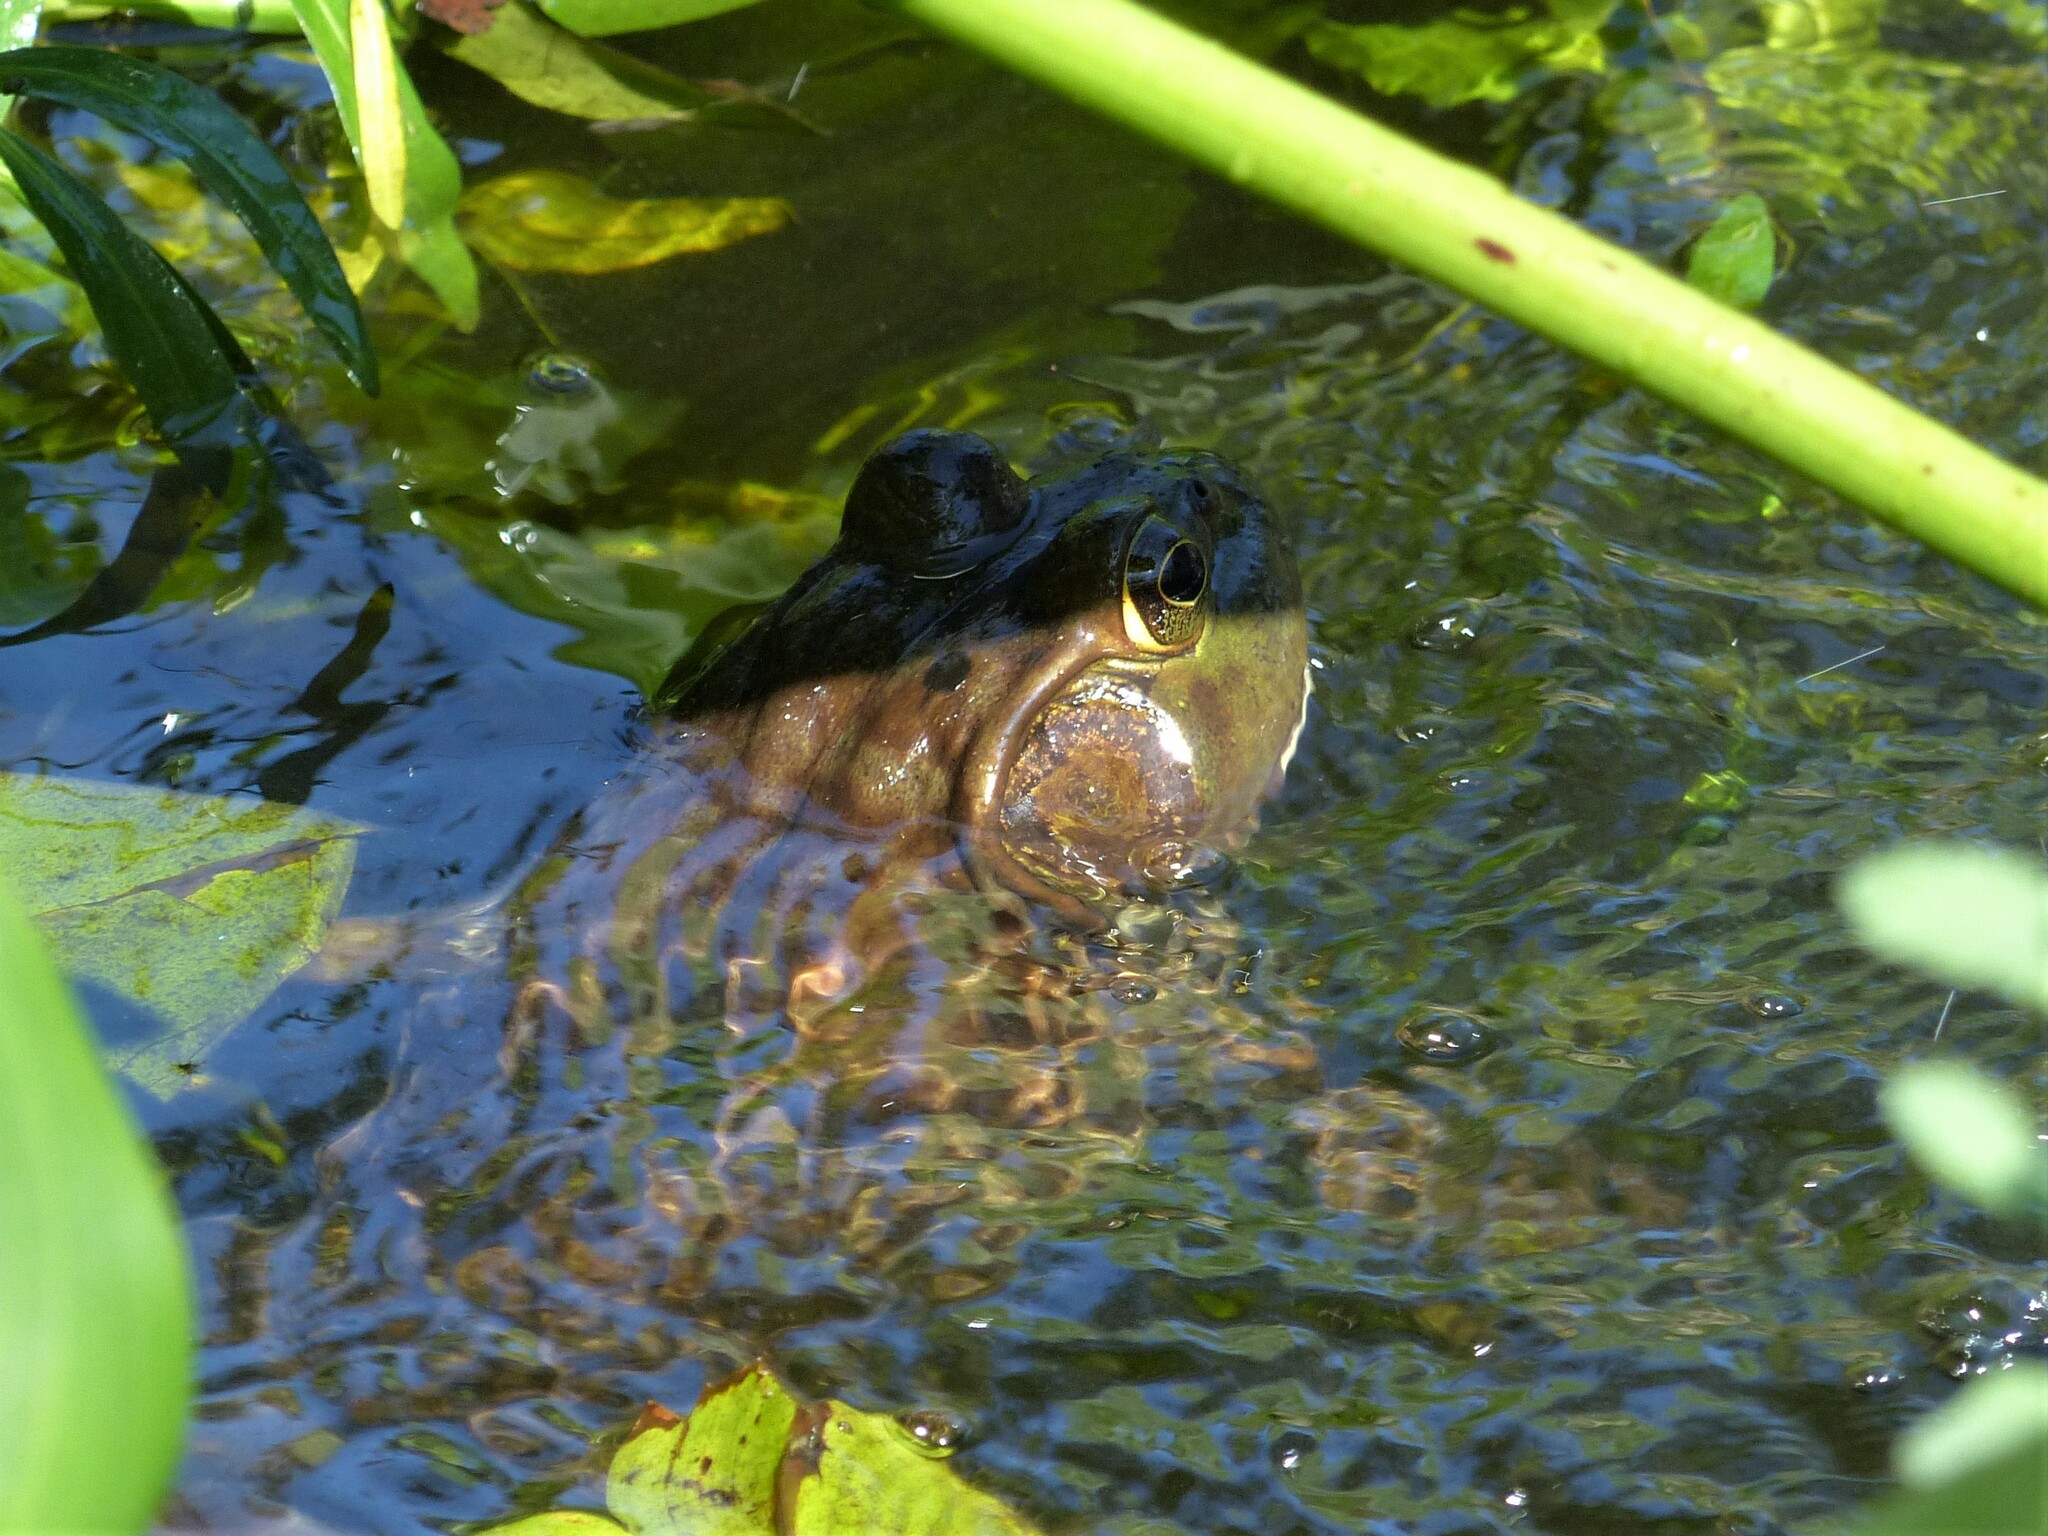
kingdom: Animalia
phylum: Chordata
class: Amphibia
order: Anura
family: Ranidae
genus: Lithobates
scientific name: Lithobates catesbeianus
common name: American bullfrog
